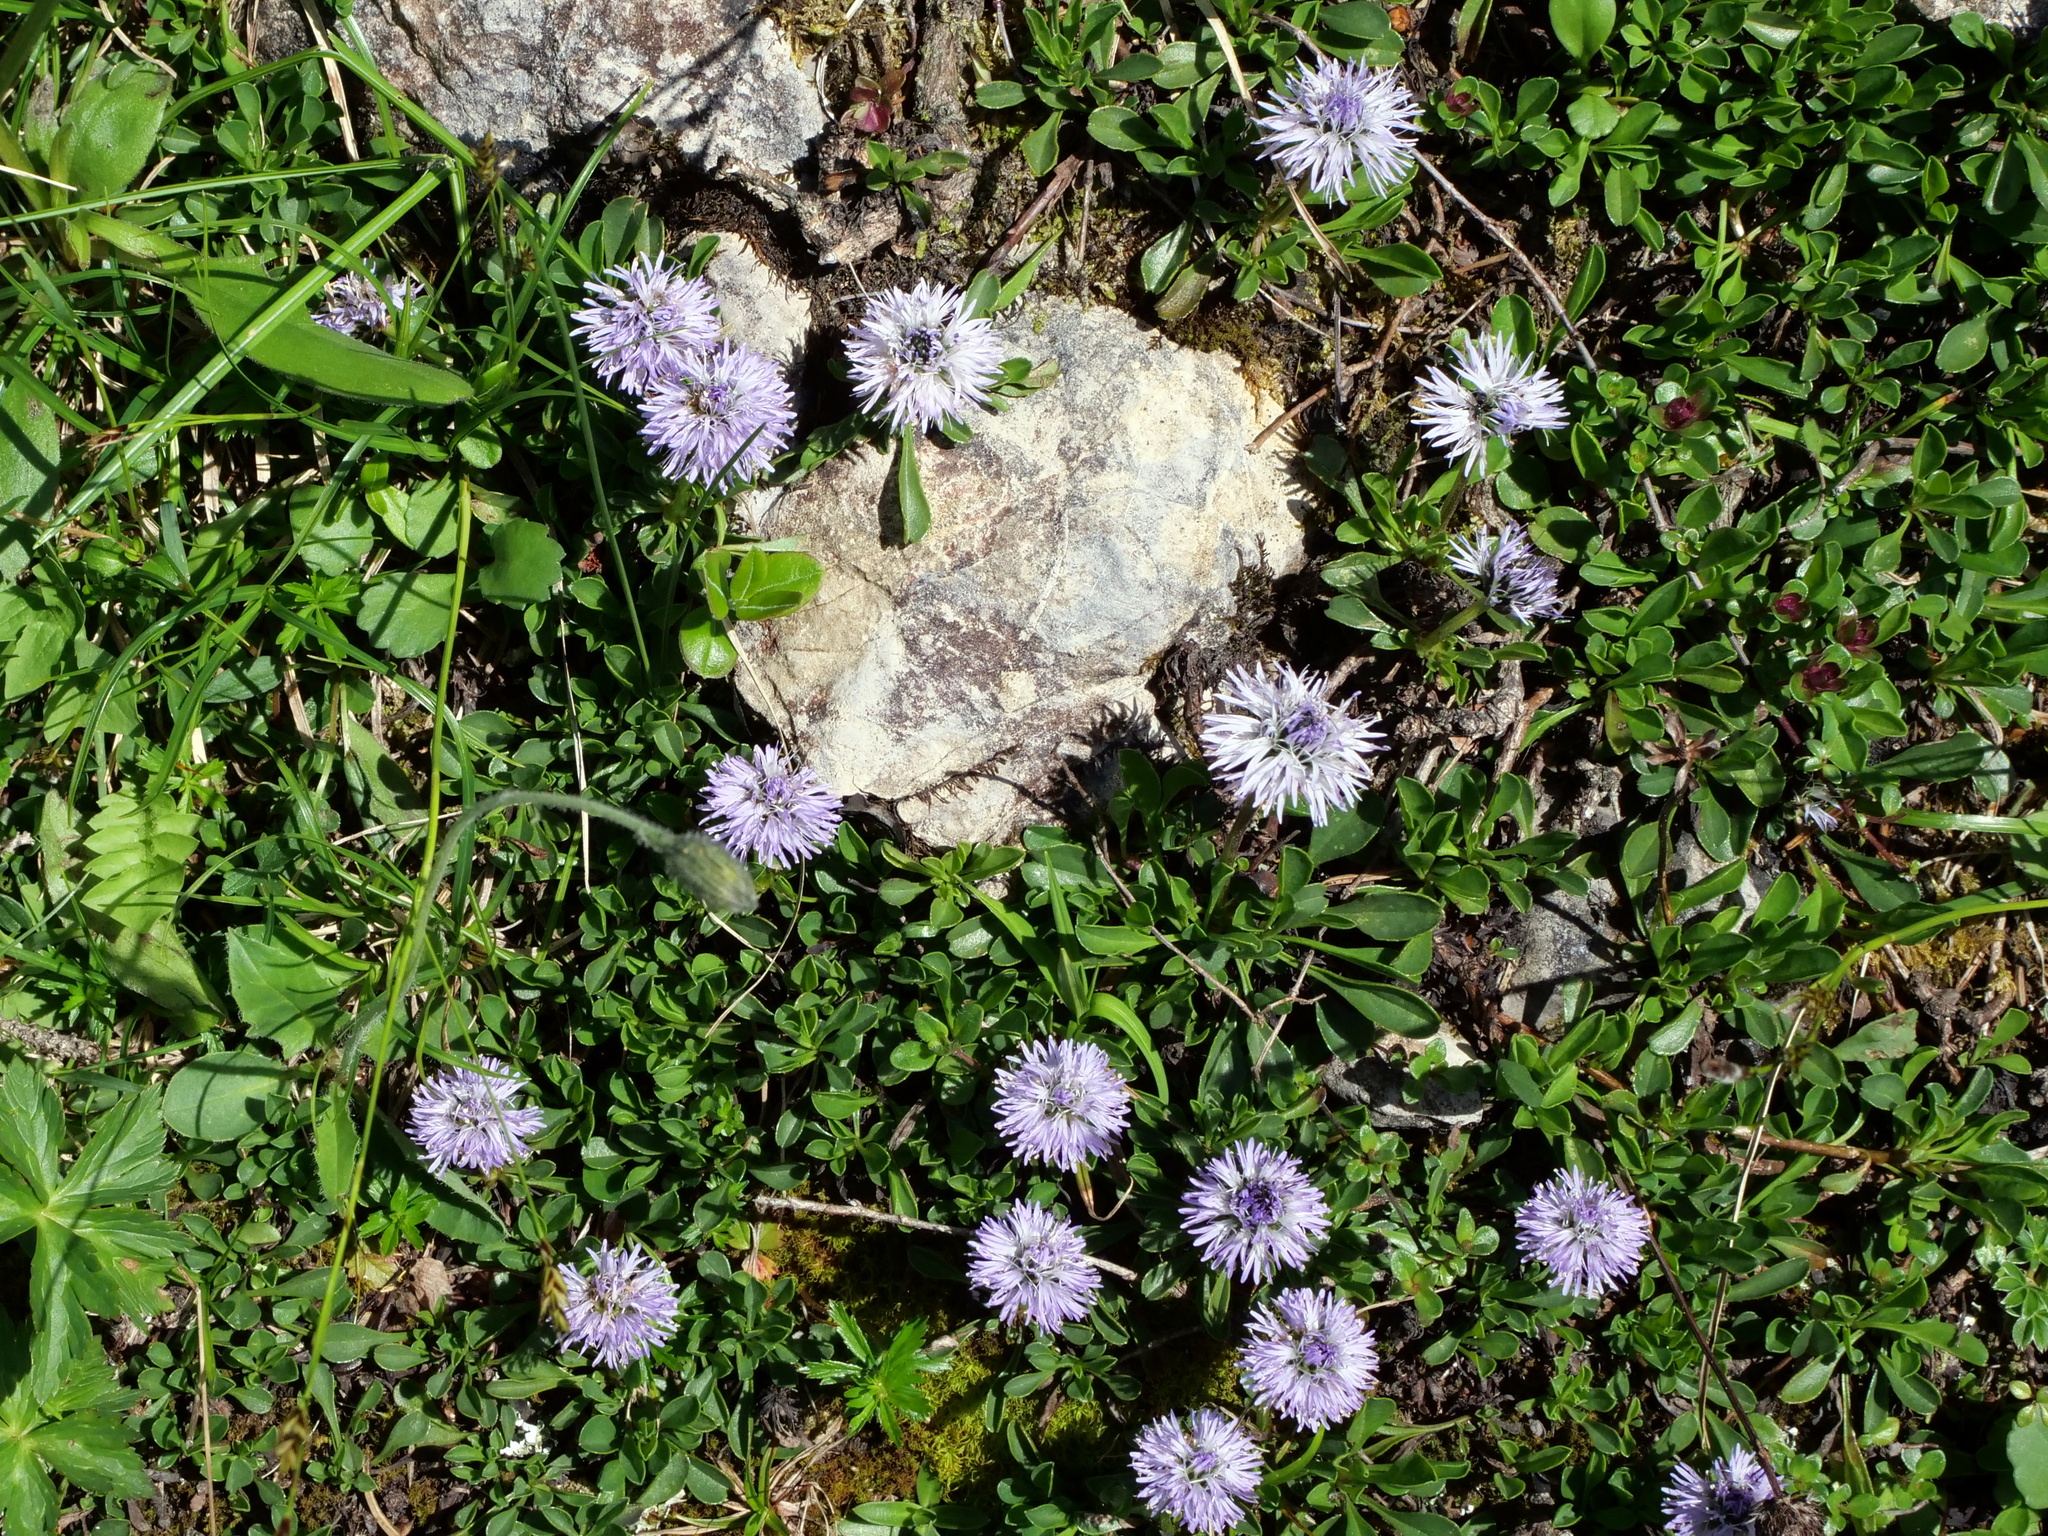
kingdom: Plantae
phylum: Tracheophyta
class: Magnoliopsida
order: Lamiales
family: Plantaginaceae
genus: Globularia
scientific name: Globularia cordifolia
